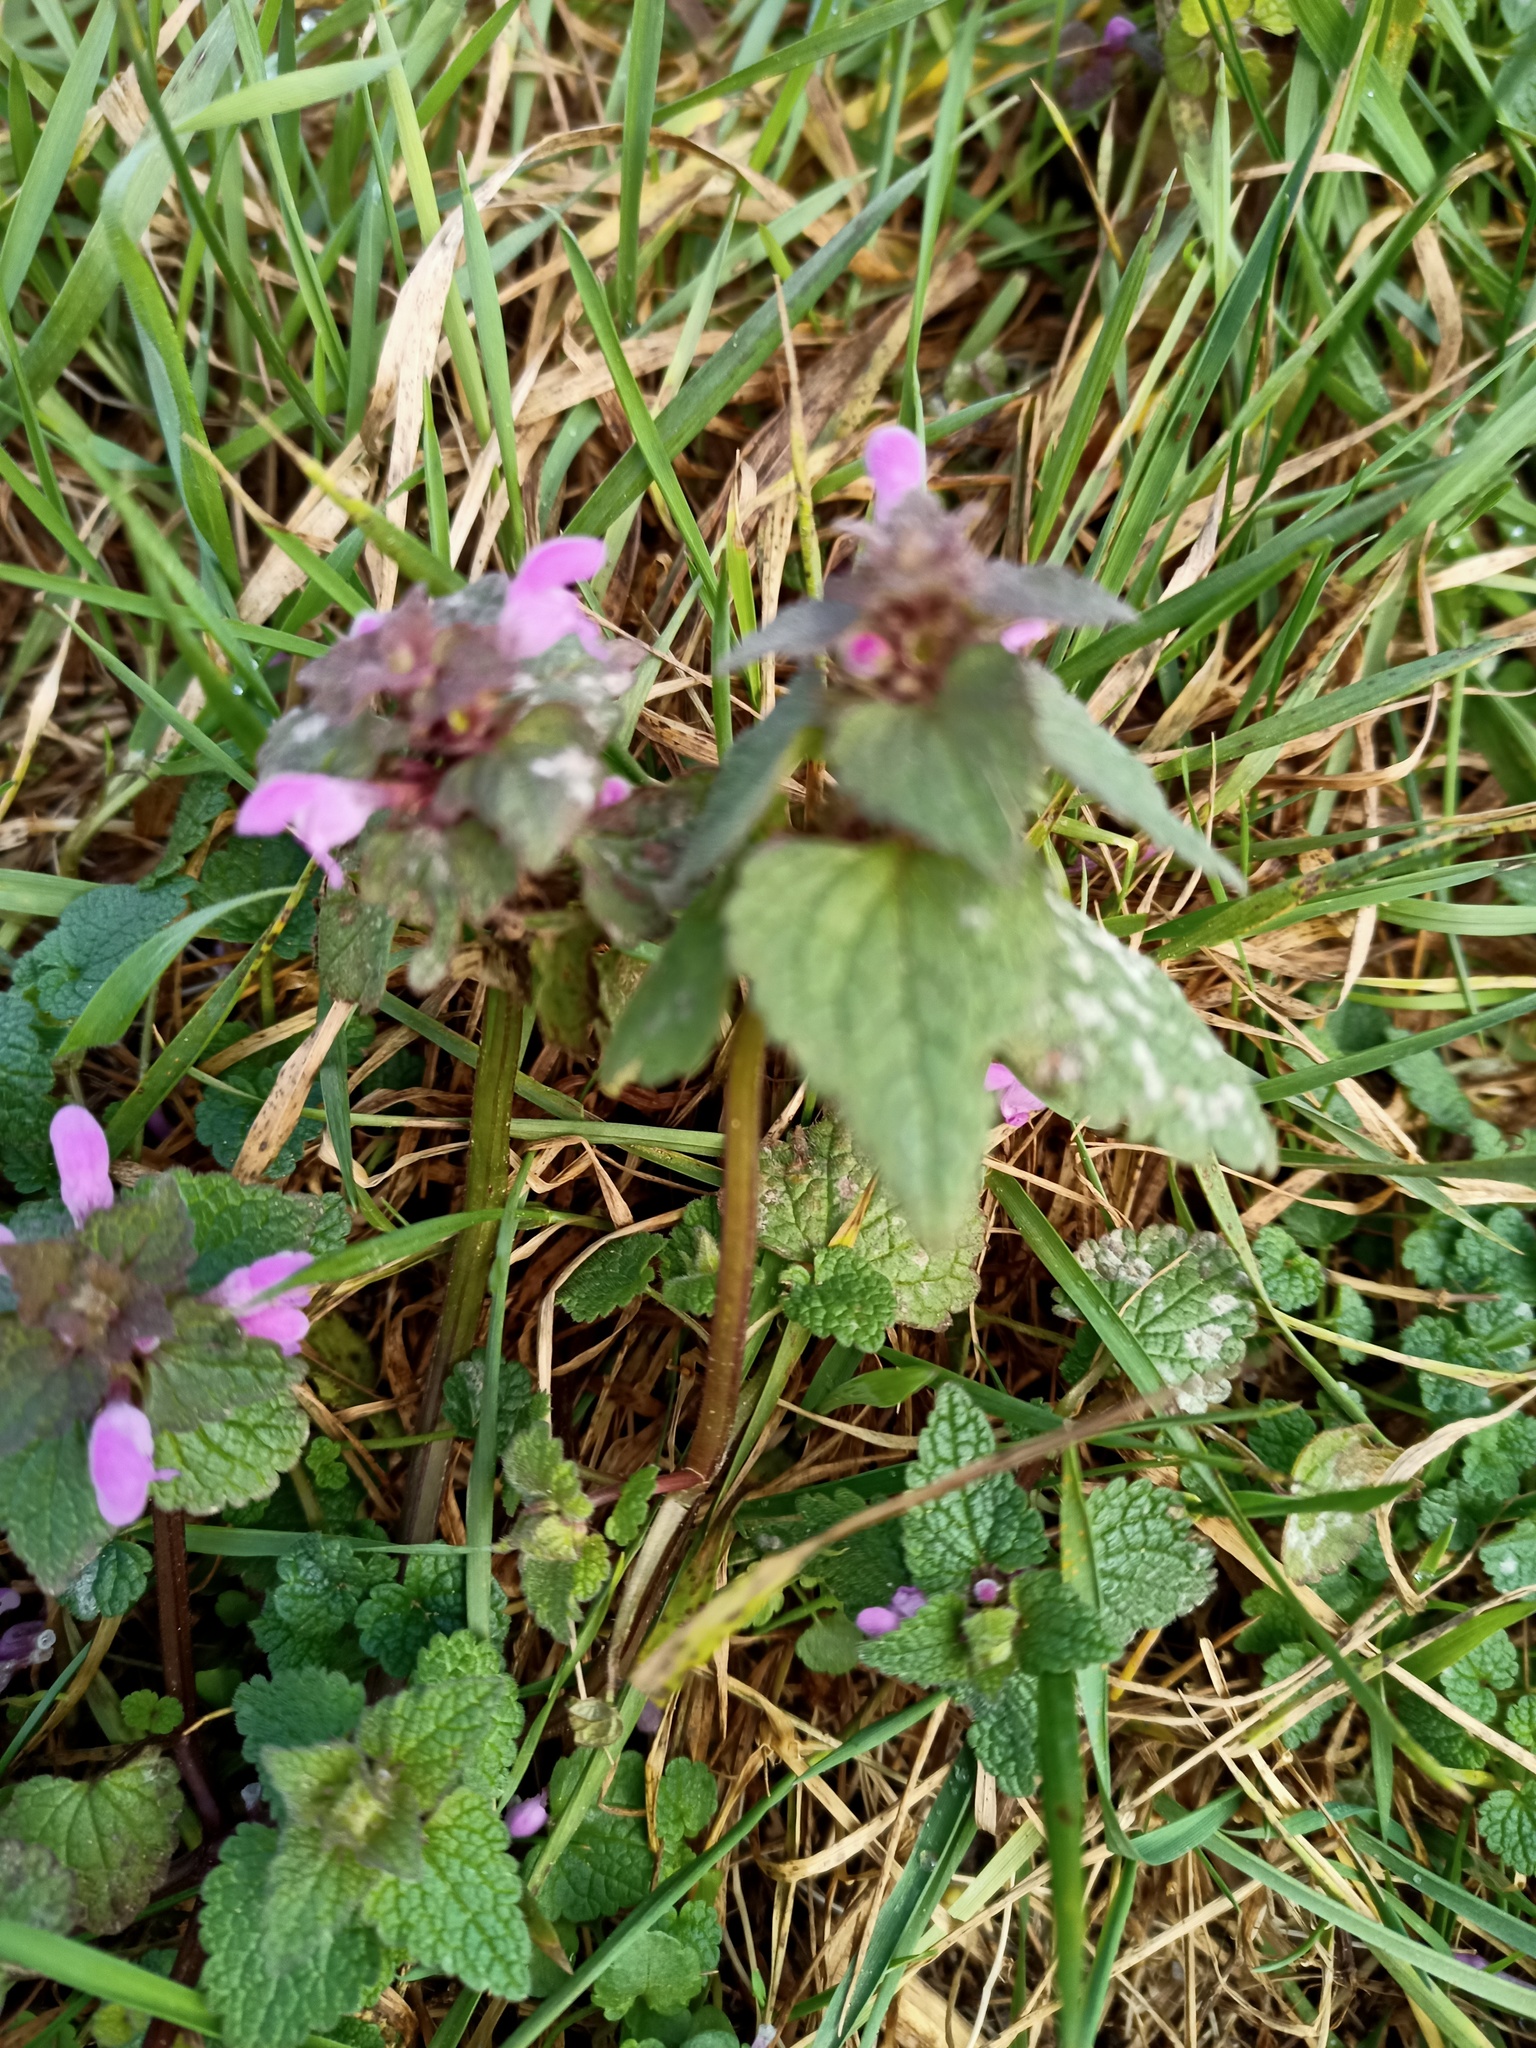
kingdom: Plantae
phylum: Tracheophyta
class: Magnoliopsida
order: Lamiales
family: Lamiaceae
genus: Lamium
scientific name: Lamium purpureum
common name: Red dead-nettle
